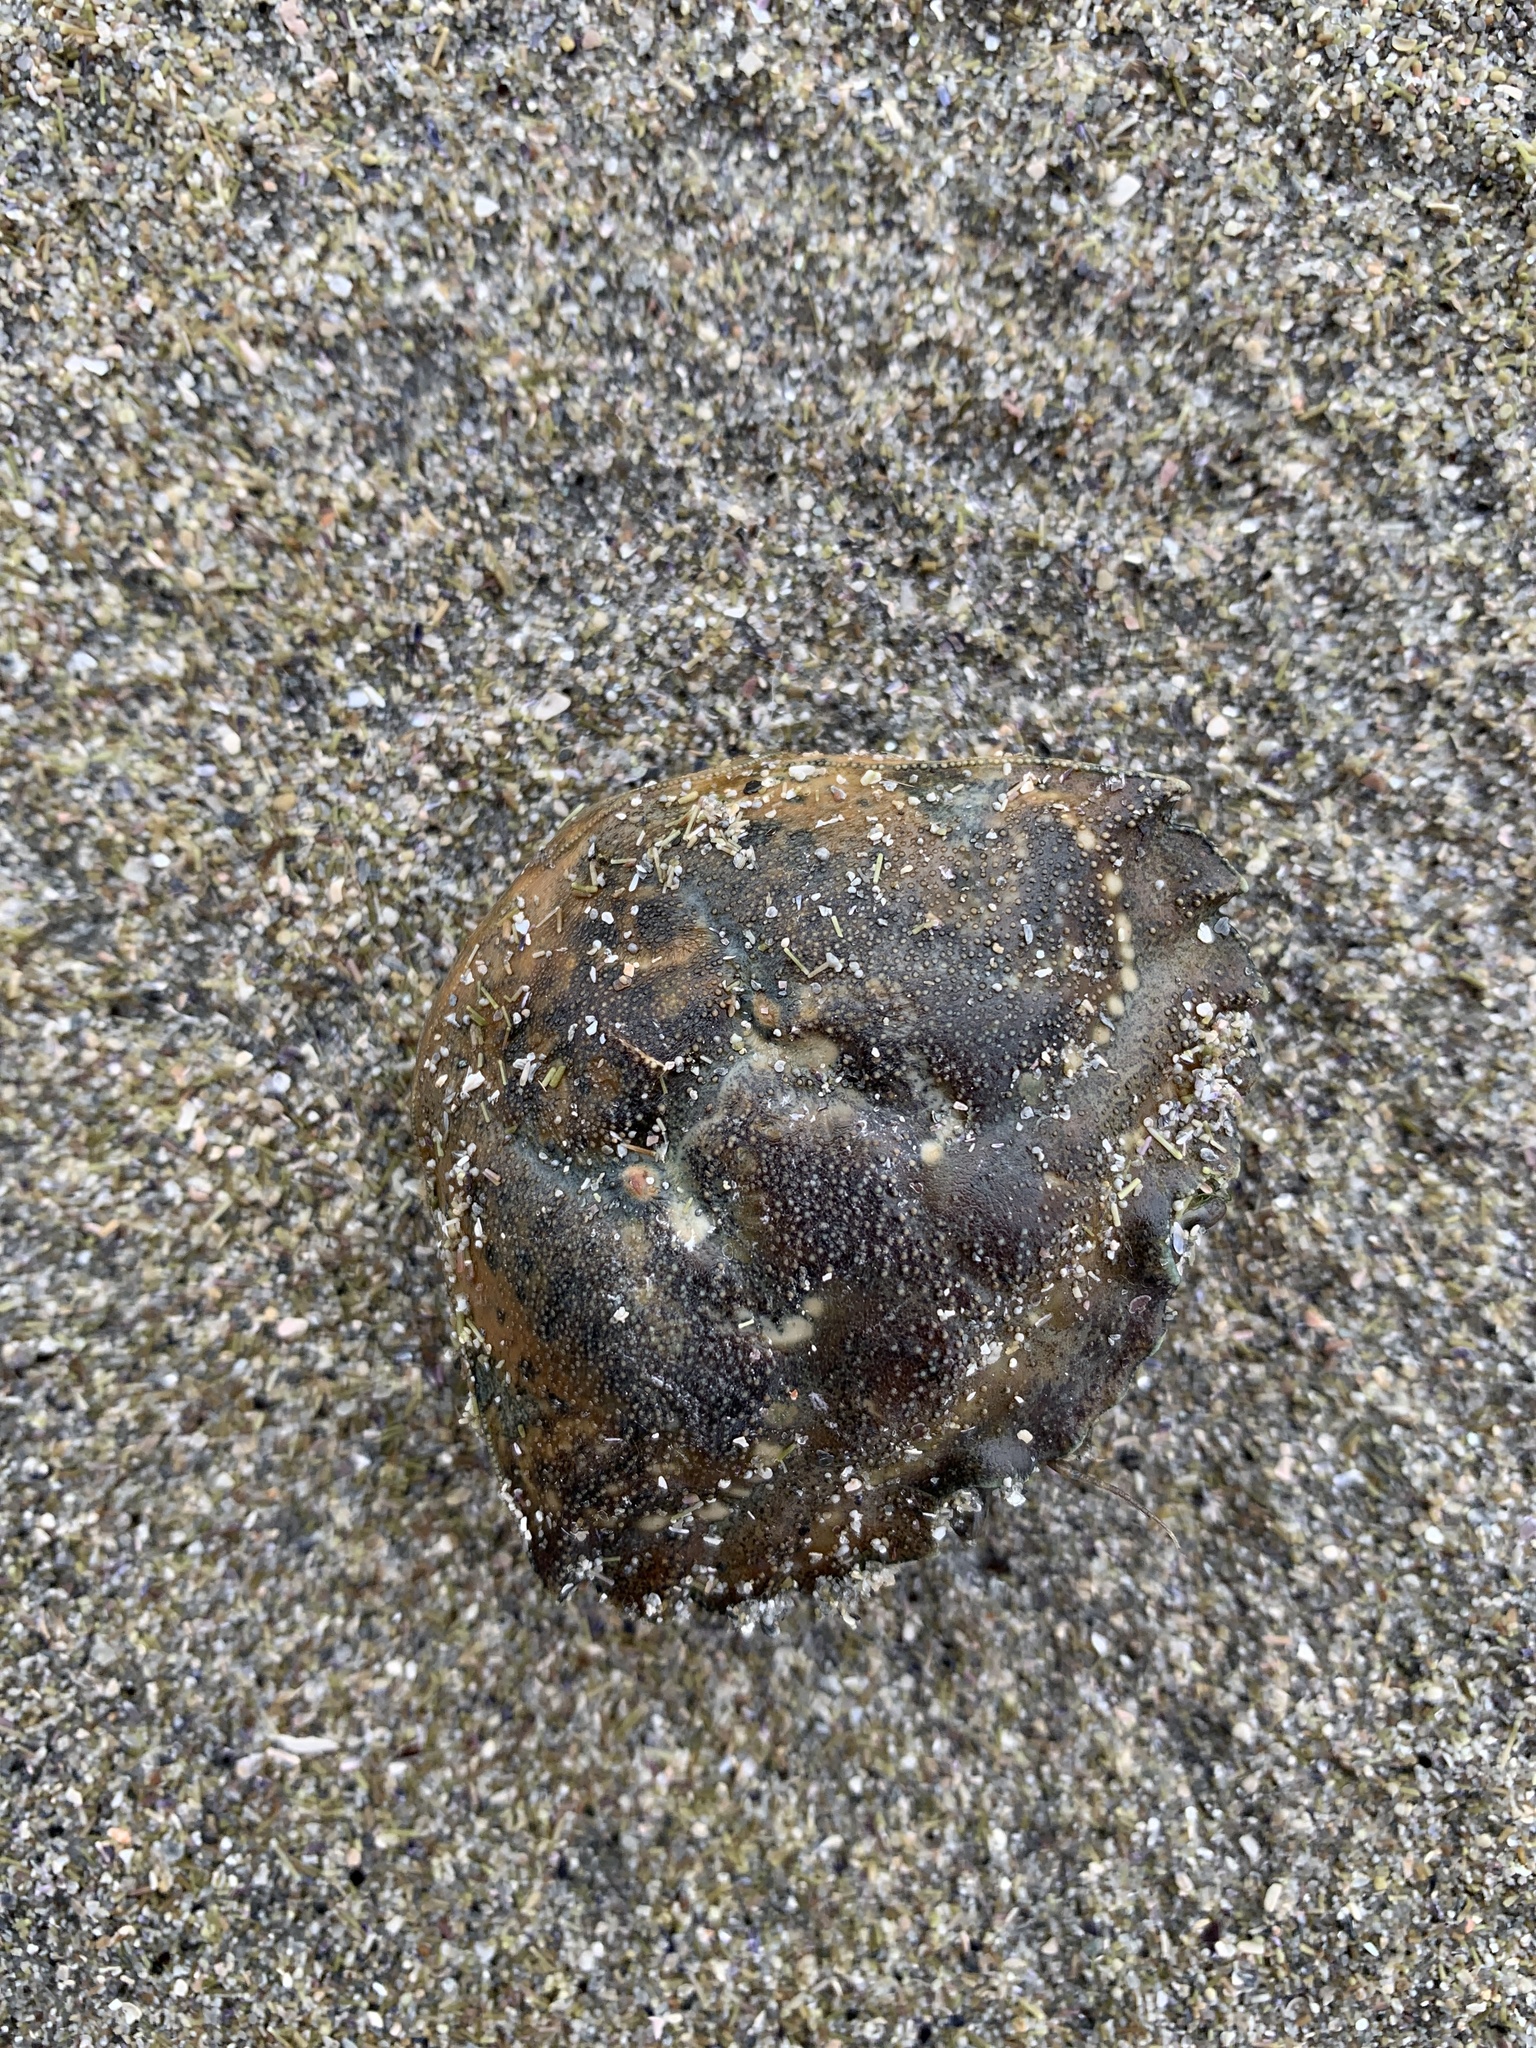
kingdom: Animalia
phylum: Arthropoda
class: Malacostraca
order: Decapoda
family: Carcinidae
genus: Carcinus
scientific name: Carcinus maenas
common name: European green crab
